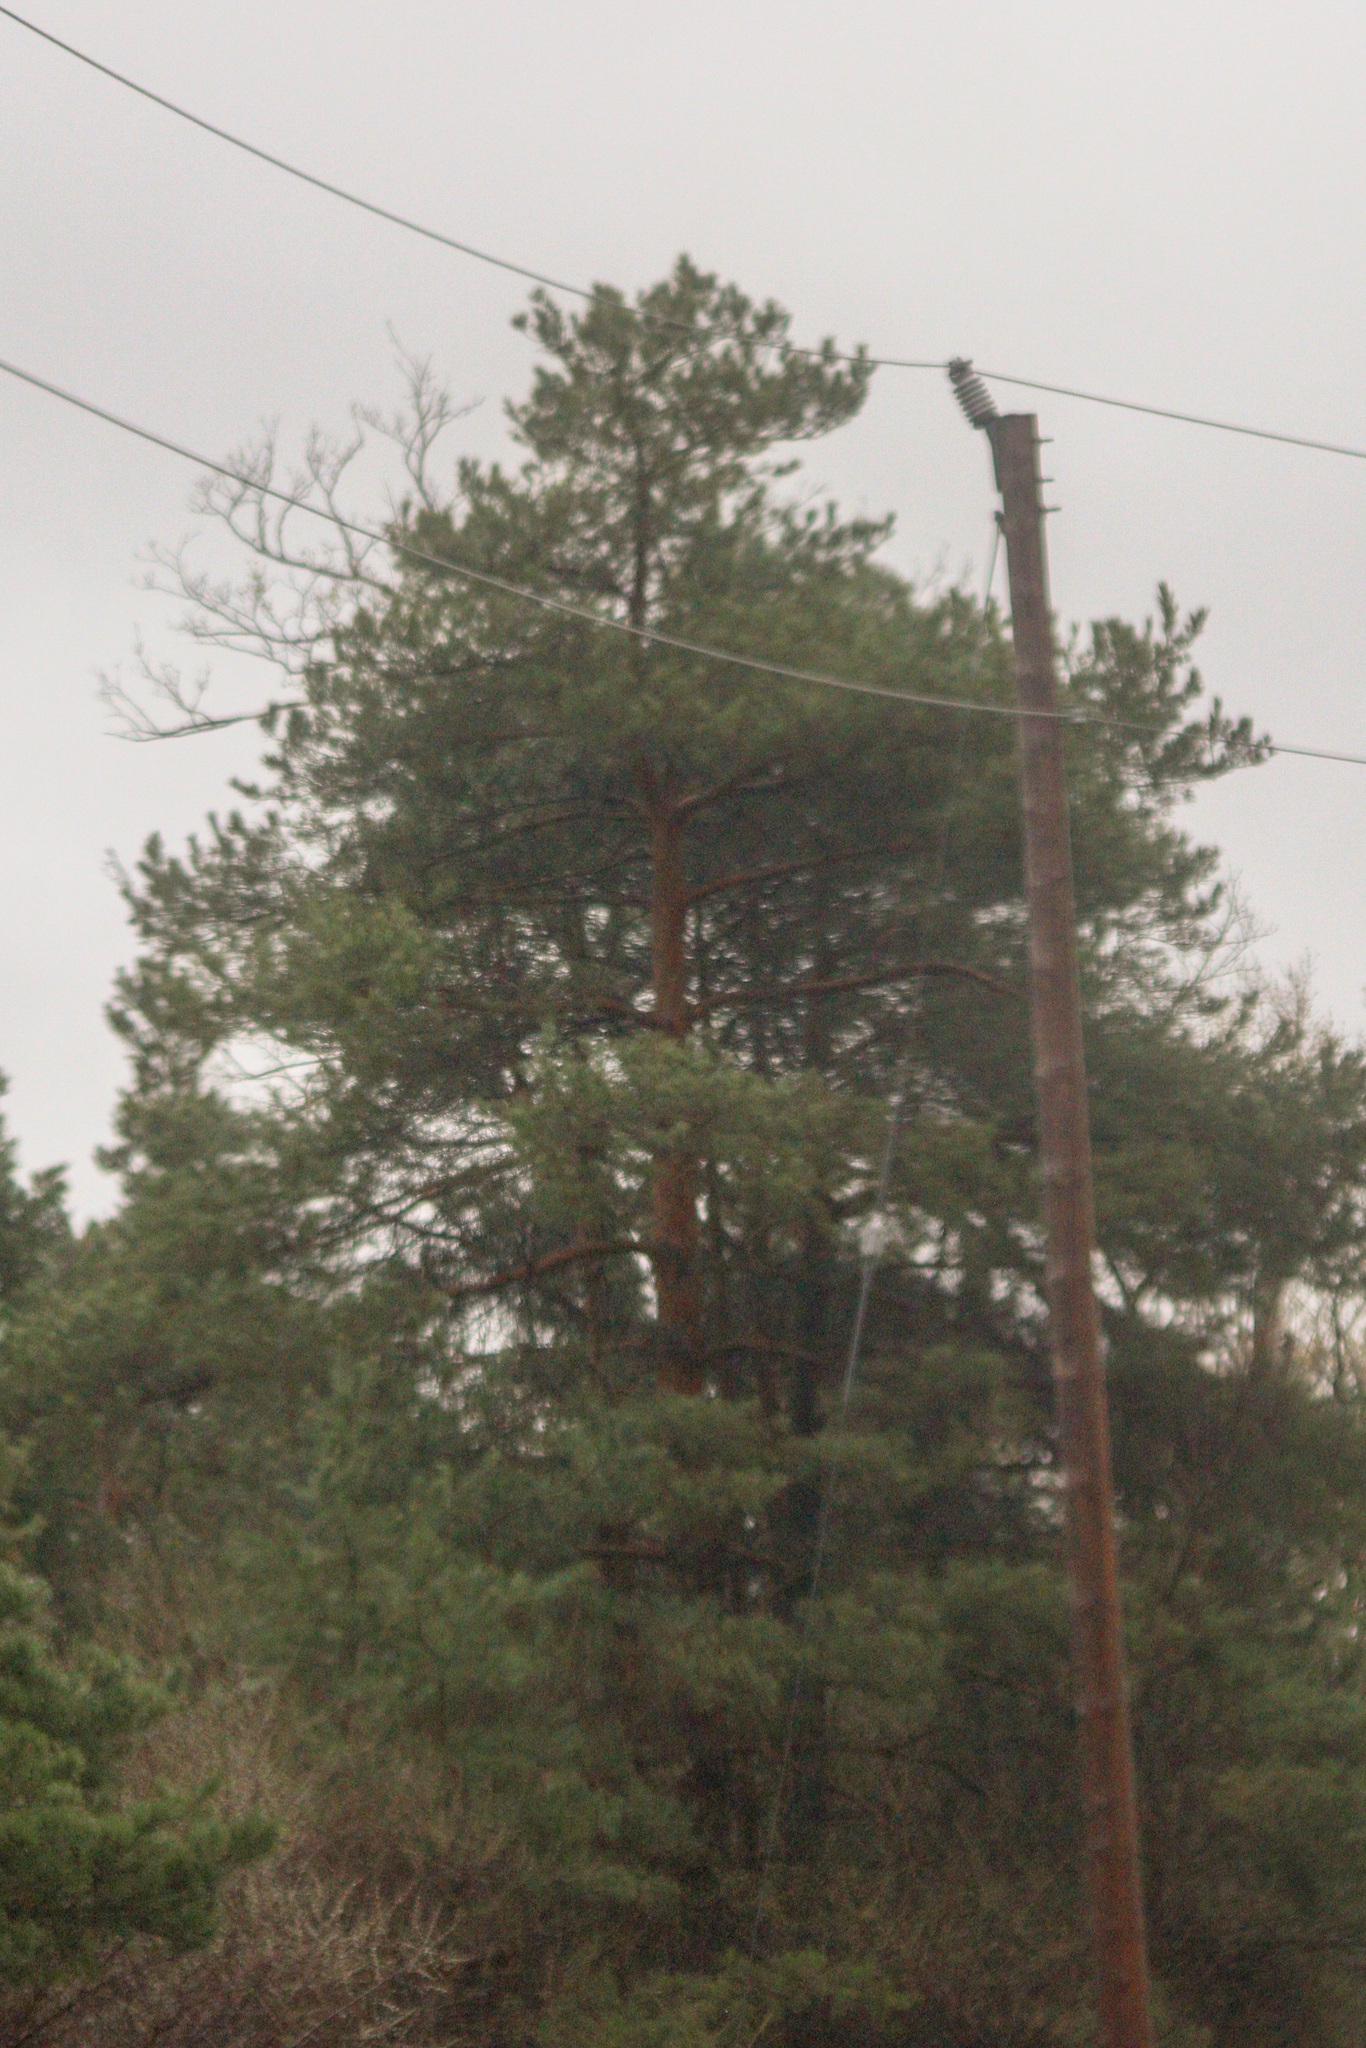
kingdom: Plantae
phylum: Tracheophyta
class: Pinopsida
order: Pinales
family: Pinaceae
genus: Pinus
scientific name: Pinus sylvestris
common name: Scots pine
